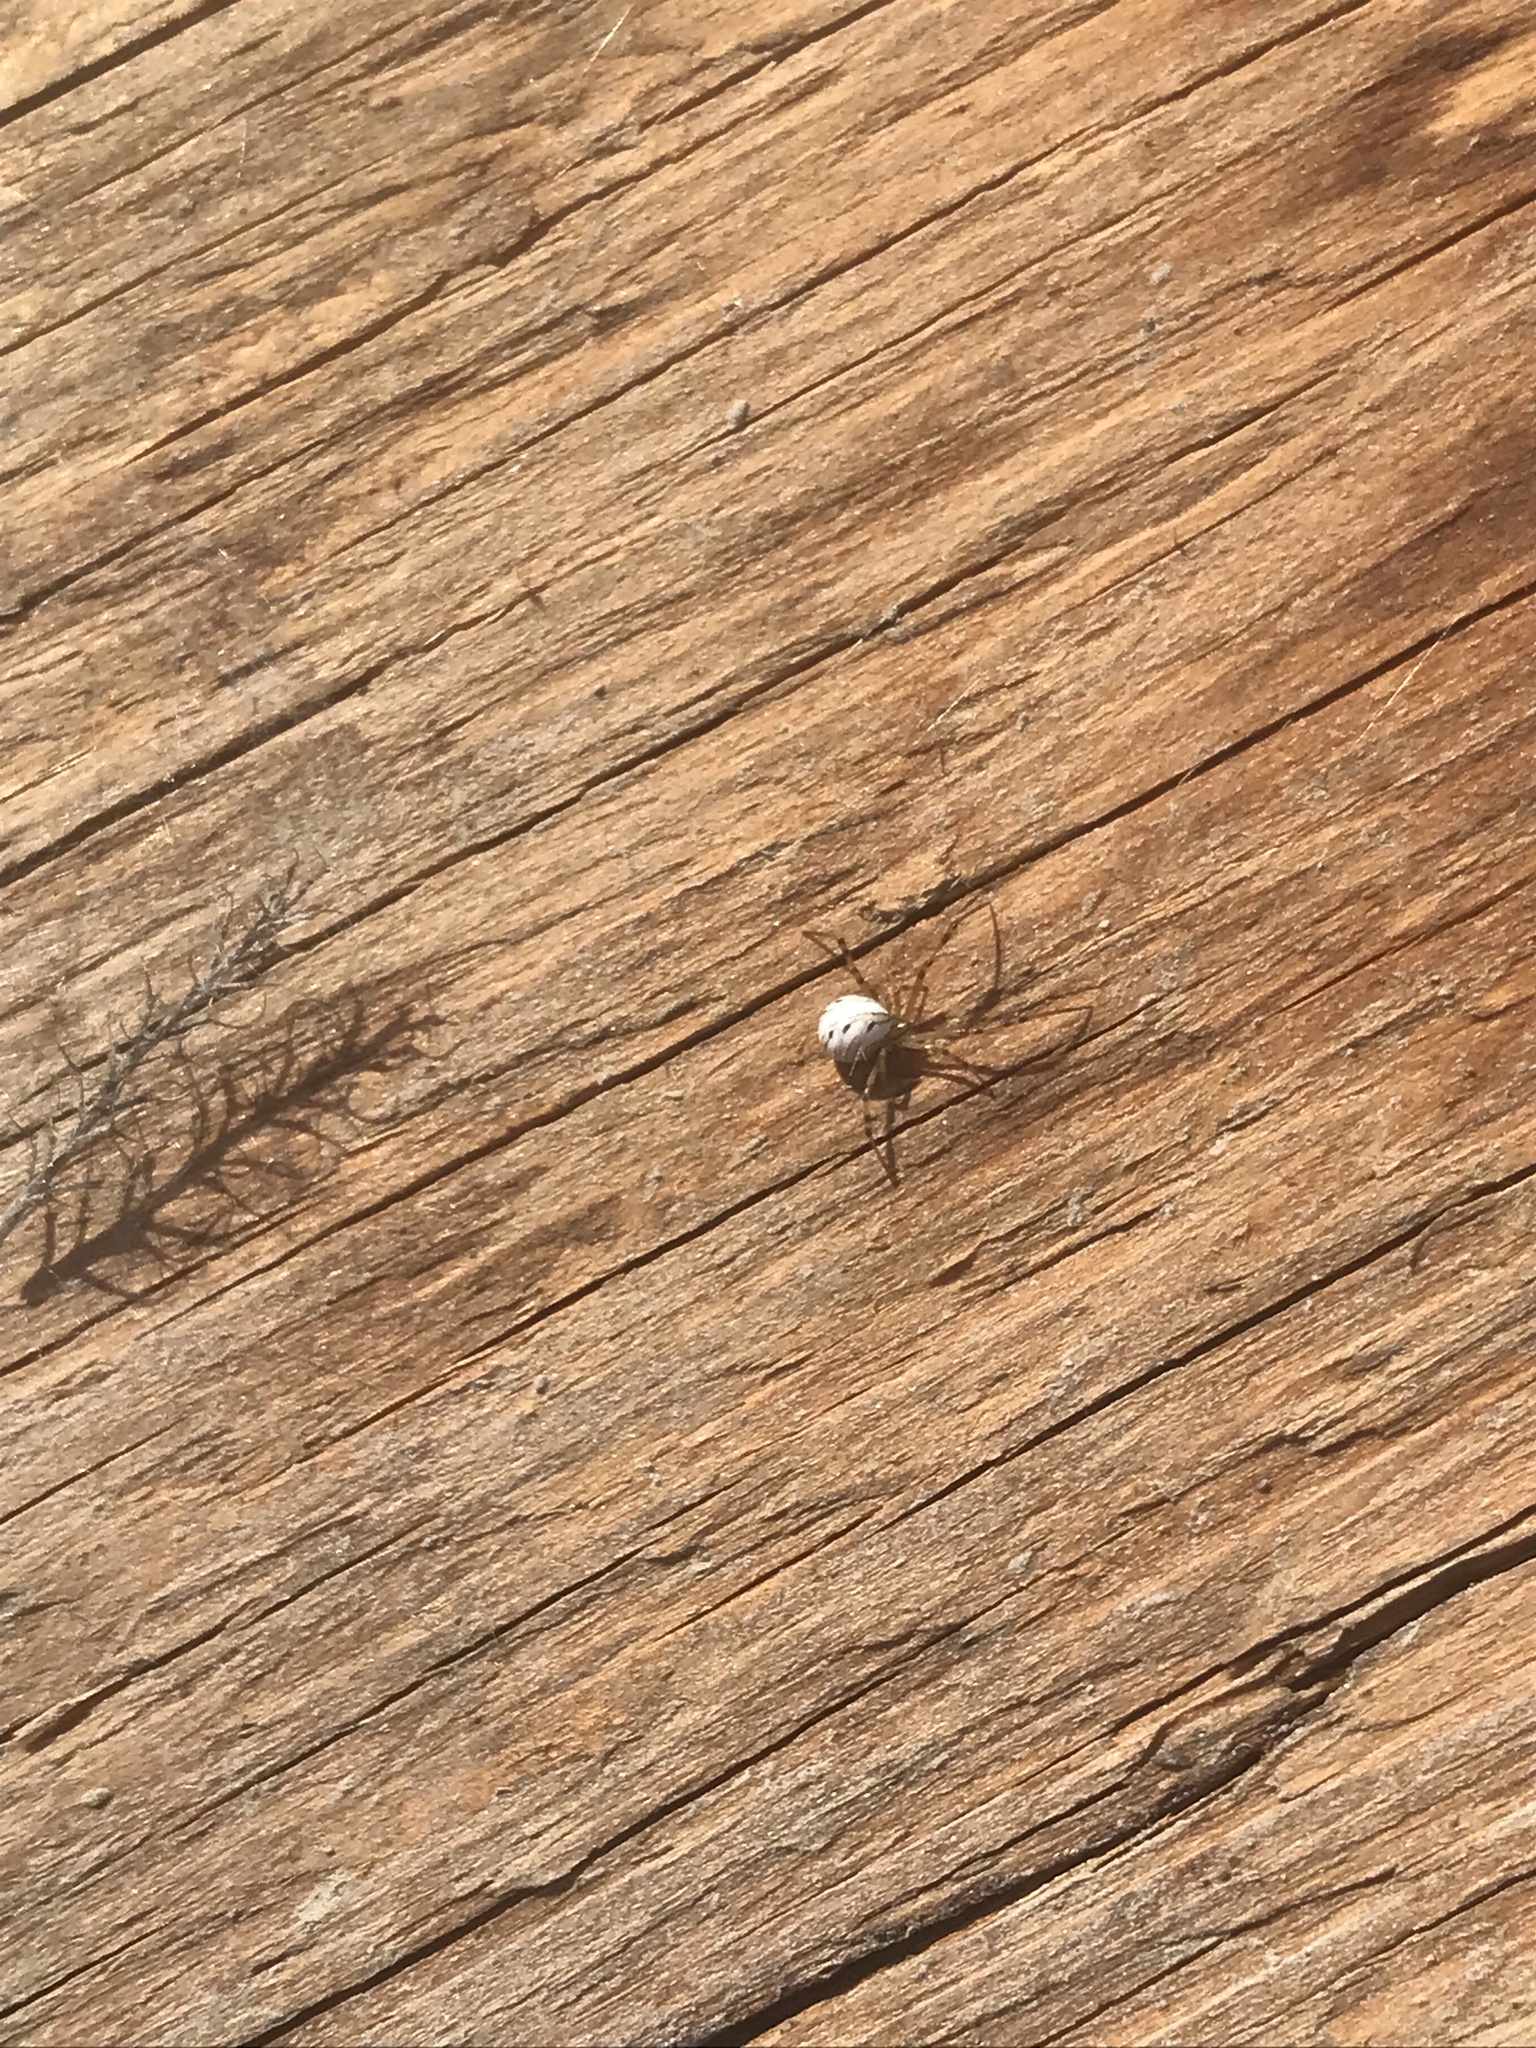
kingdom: Animalia
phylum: Arthropoda
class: Arachnida
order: Araneae
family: Theridiidae
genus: Latrodectus
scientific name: Latrodectus hesperus
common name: Western black widow
